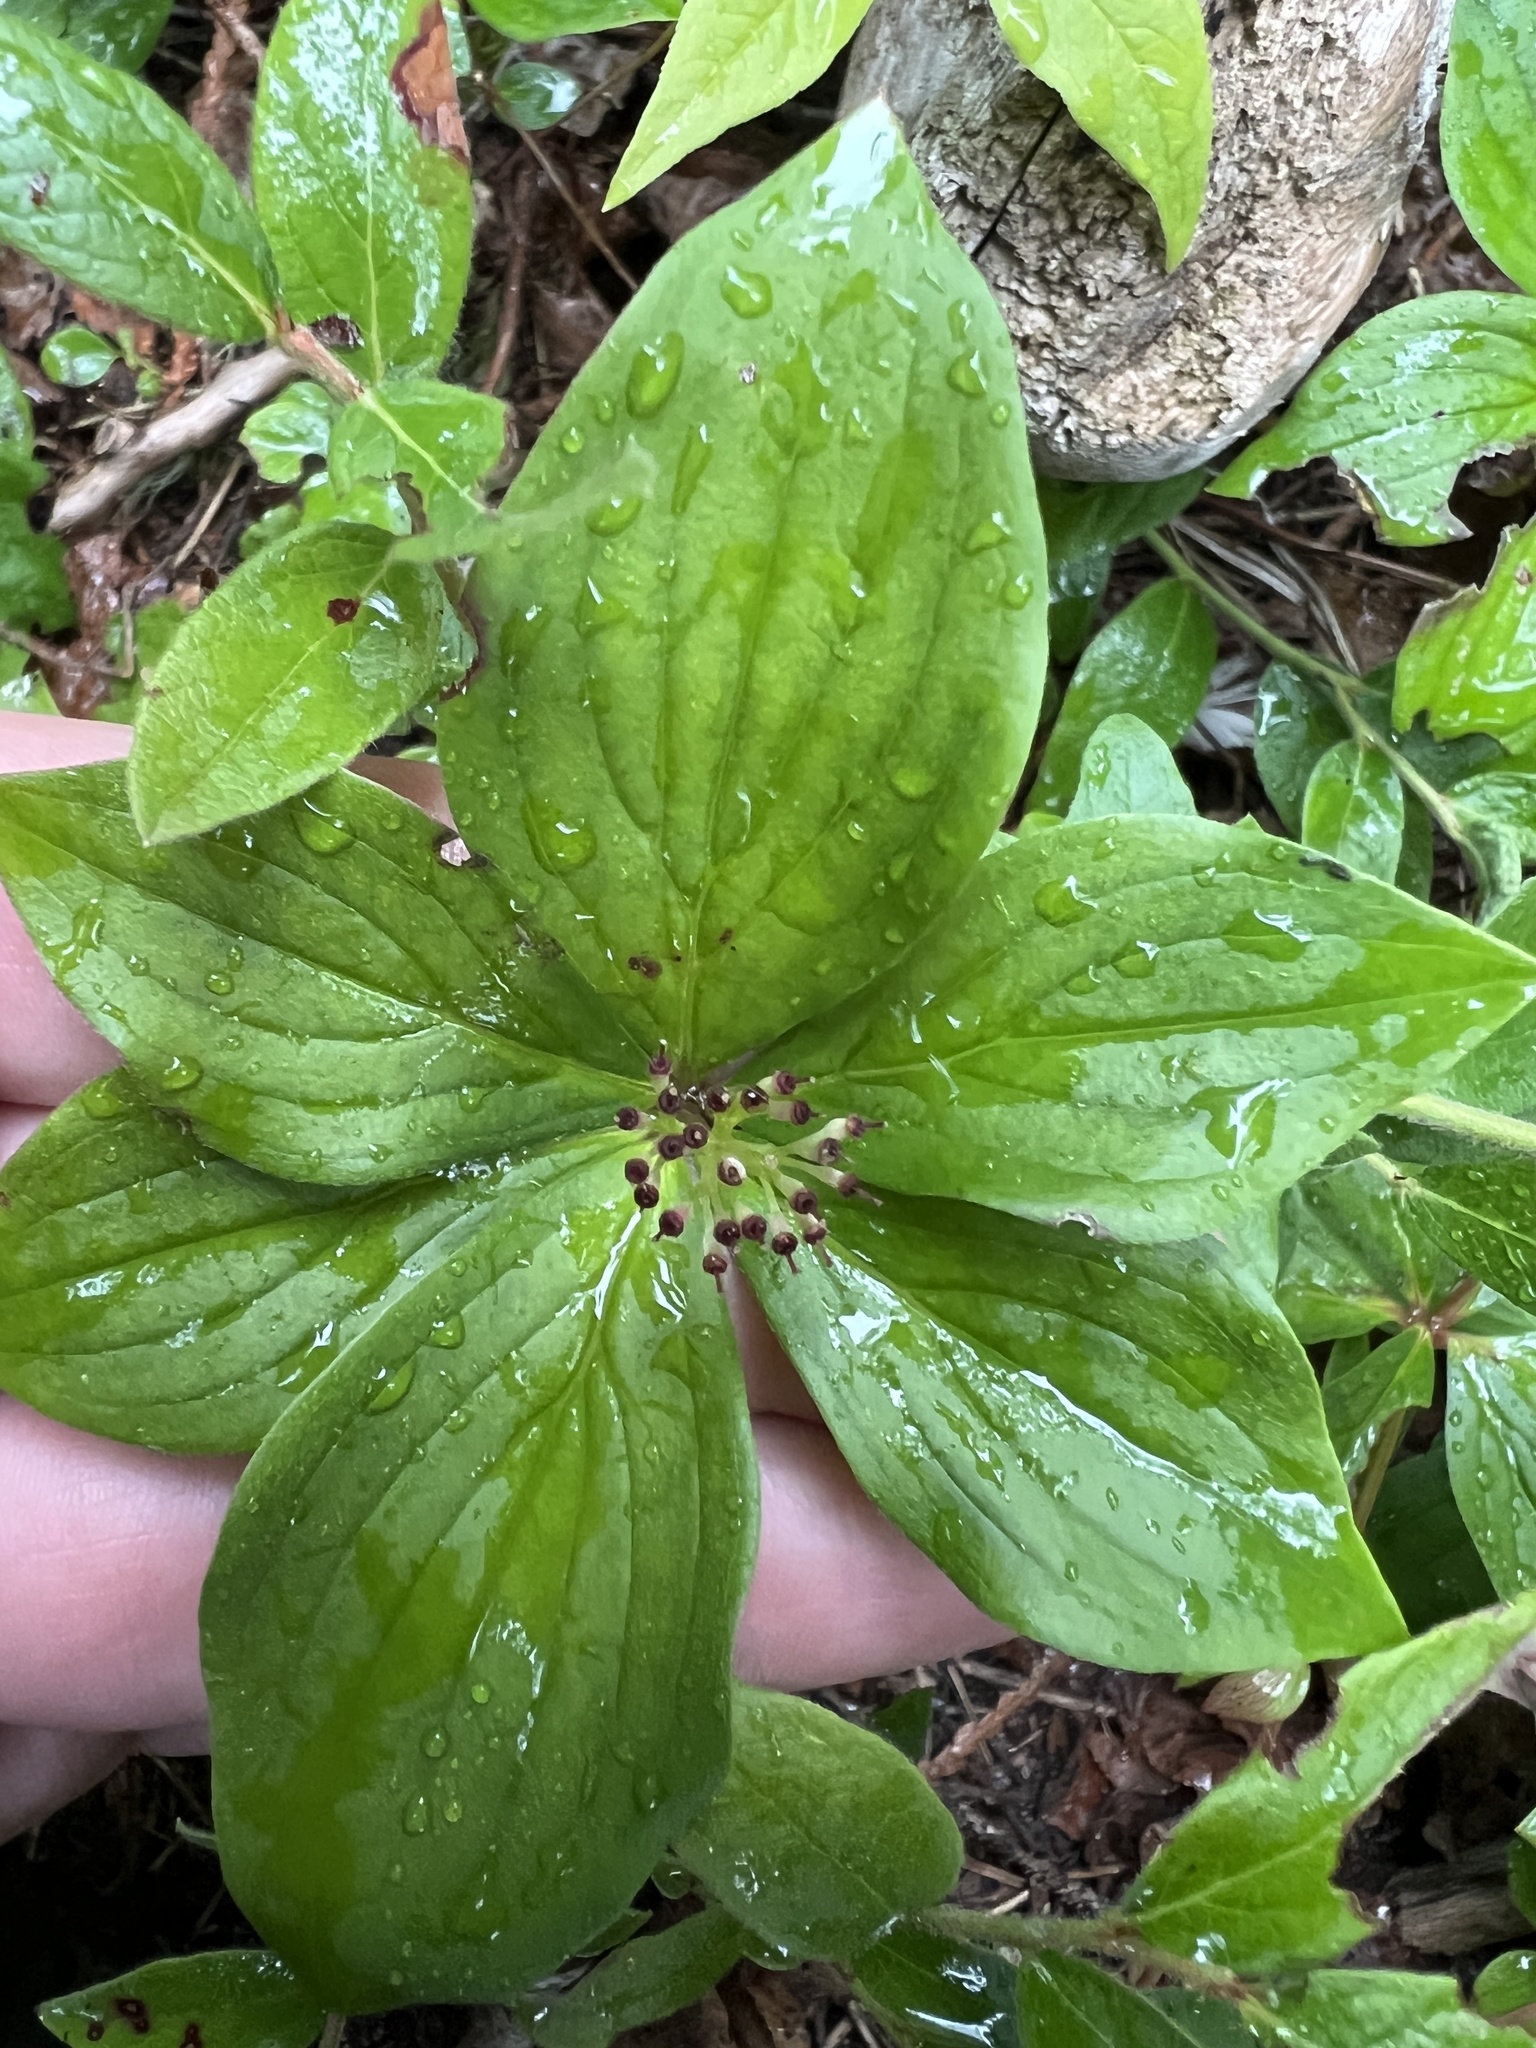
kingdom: Plantae
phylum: Tracheophyta
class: Magnoliopsida
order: Cornales
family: Cornaceae
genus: Cornus
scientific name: Cornus canadensis
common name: Creeping dogwood
